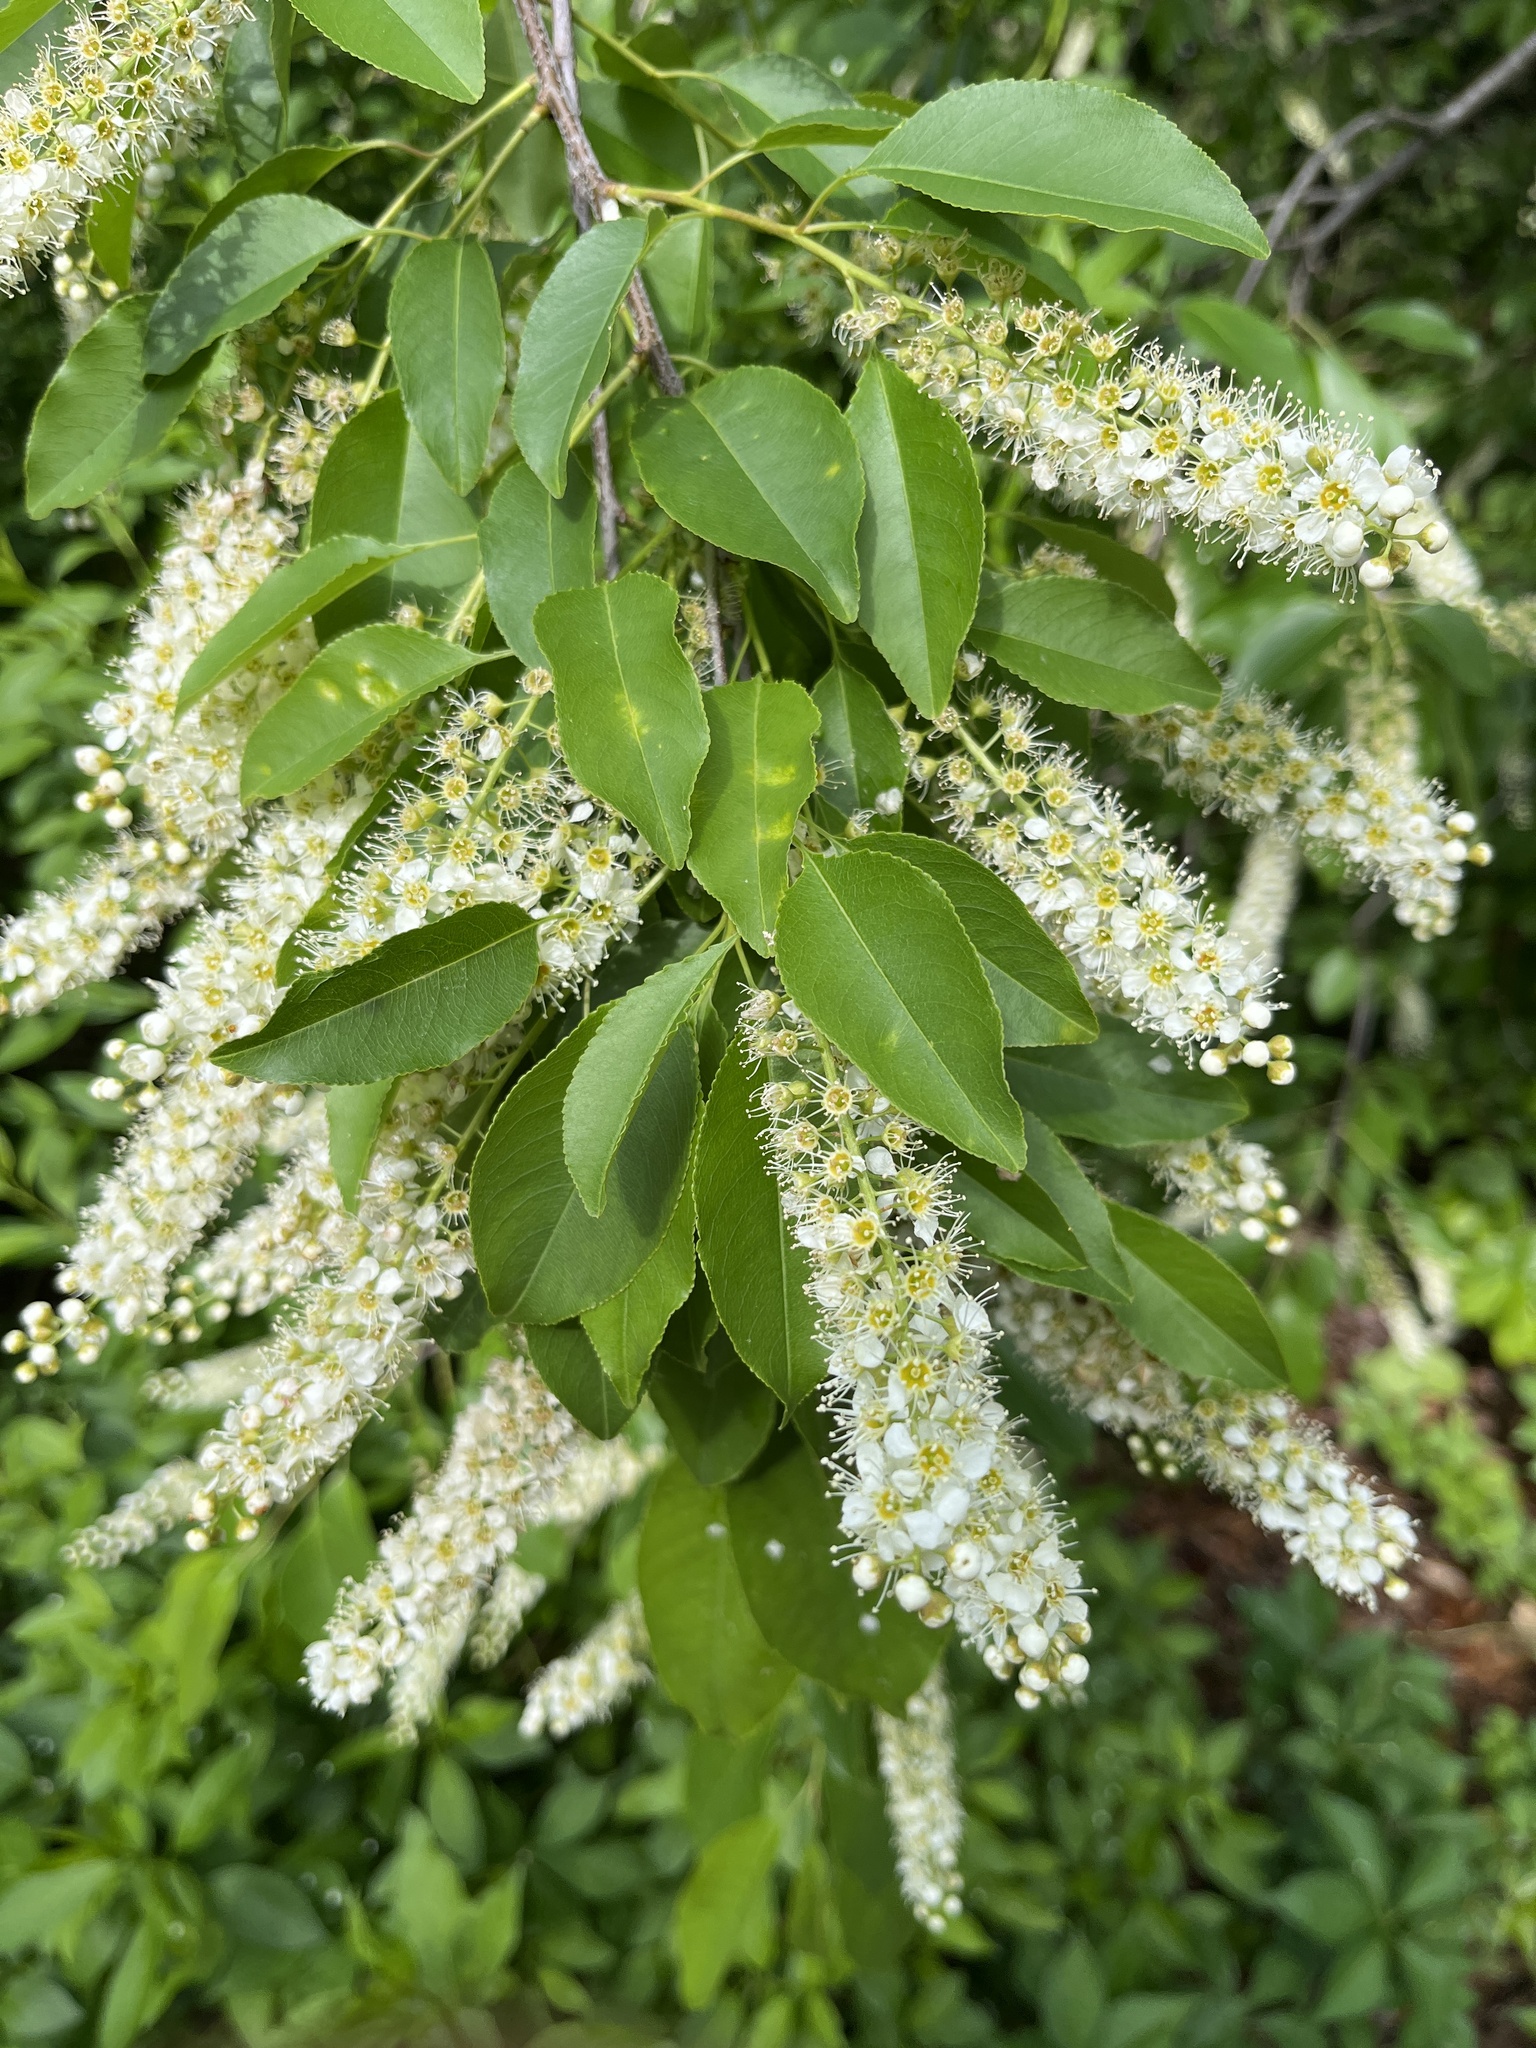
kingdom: Plantae
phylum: Tracheophyta
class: Magnoliopsida
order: Rosales
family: Rosaceae
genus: Prunus
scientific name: Prunus serotina
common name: Black cherry
